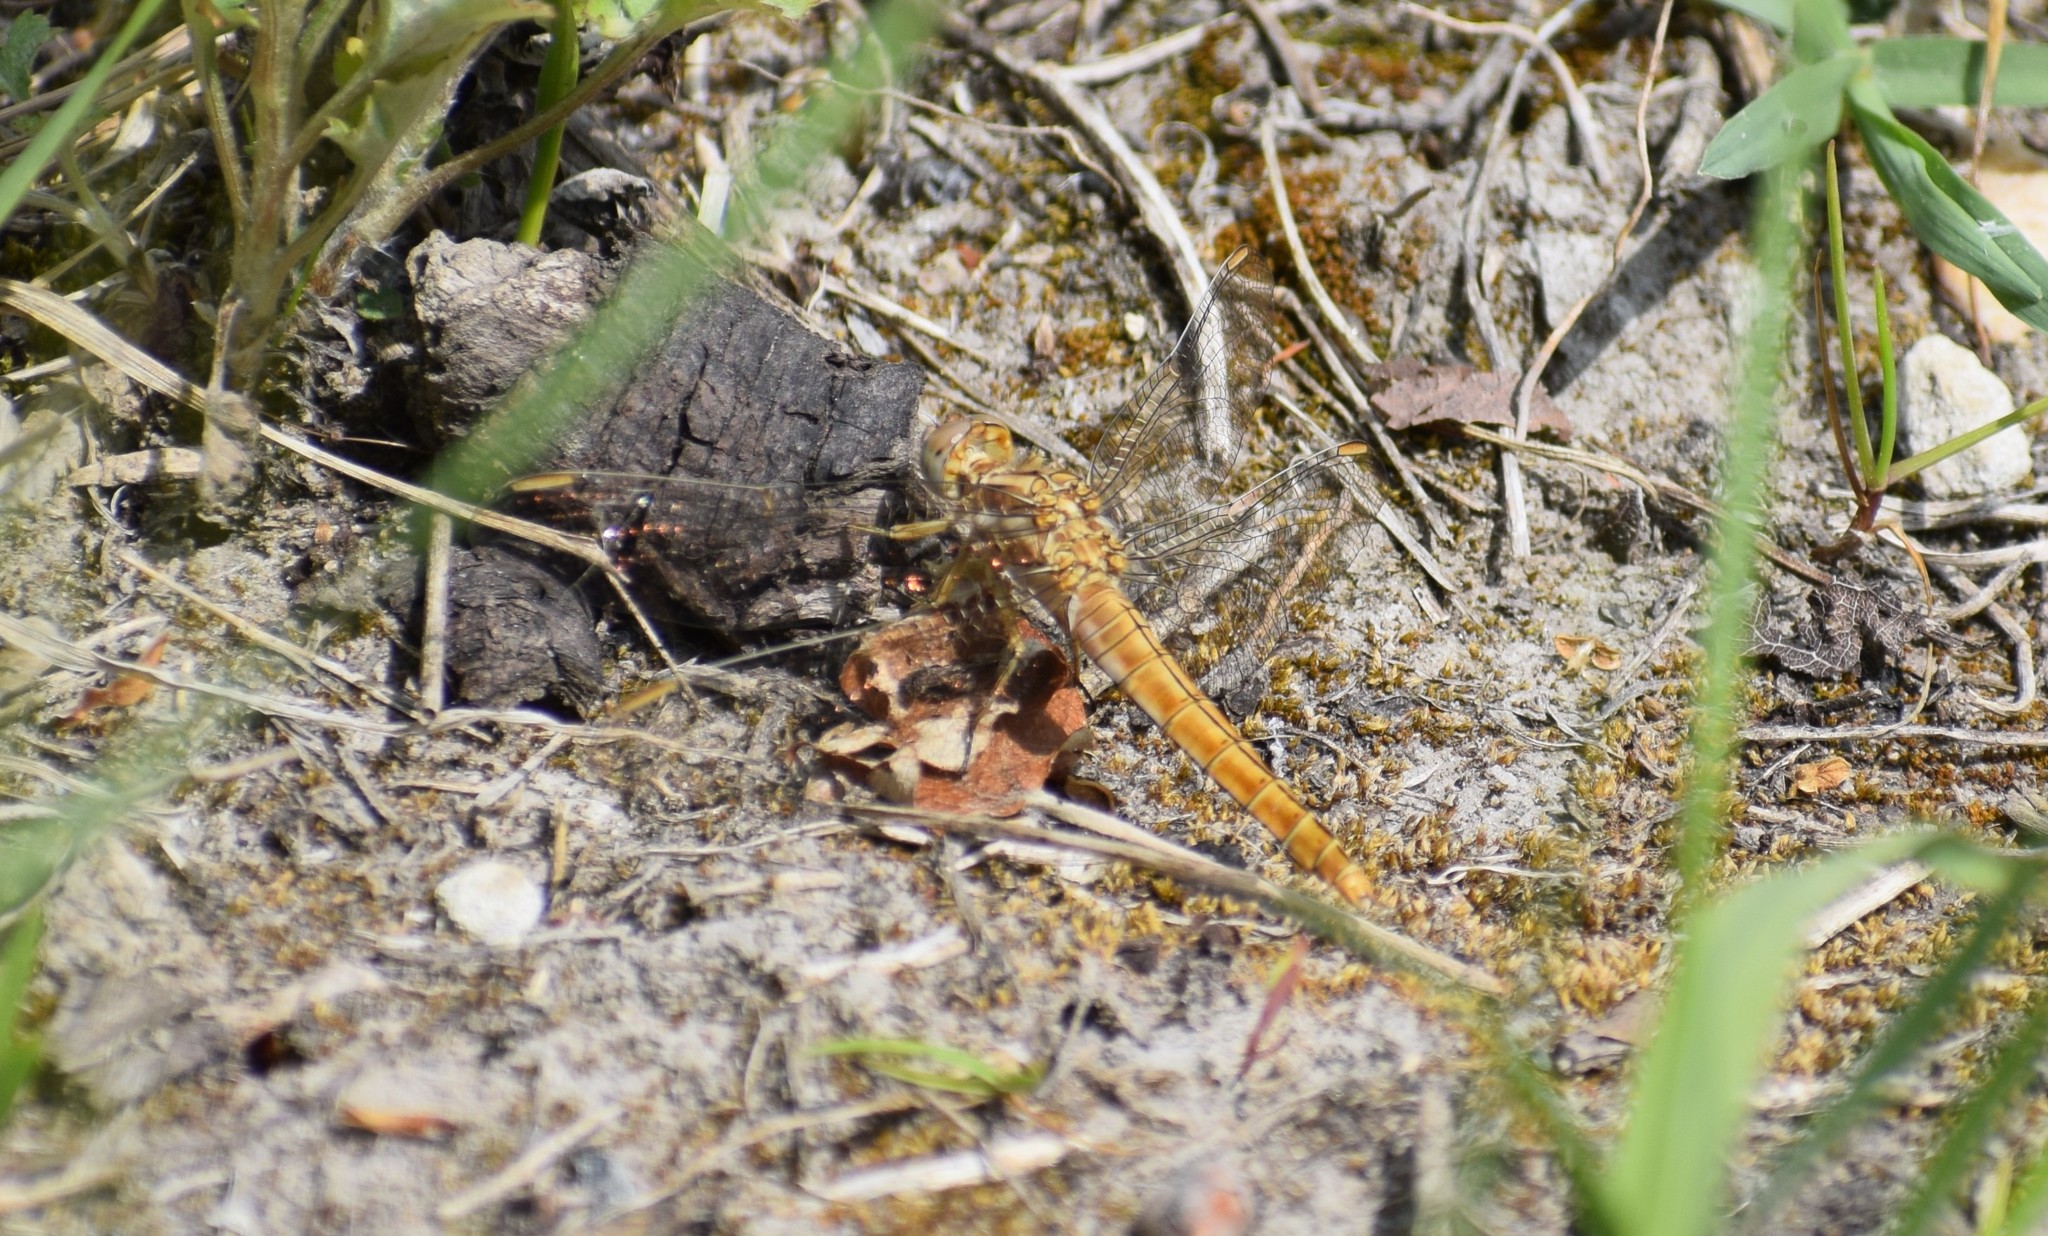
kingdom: Animalia
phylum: Arthropoda
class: Insecta
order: Odonata
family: Libellulidae
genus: Orthetrum
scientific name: Orthetrum brunneum
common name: Southern skimmer
